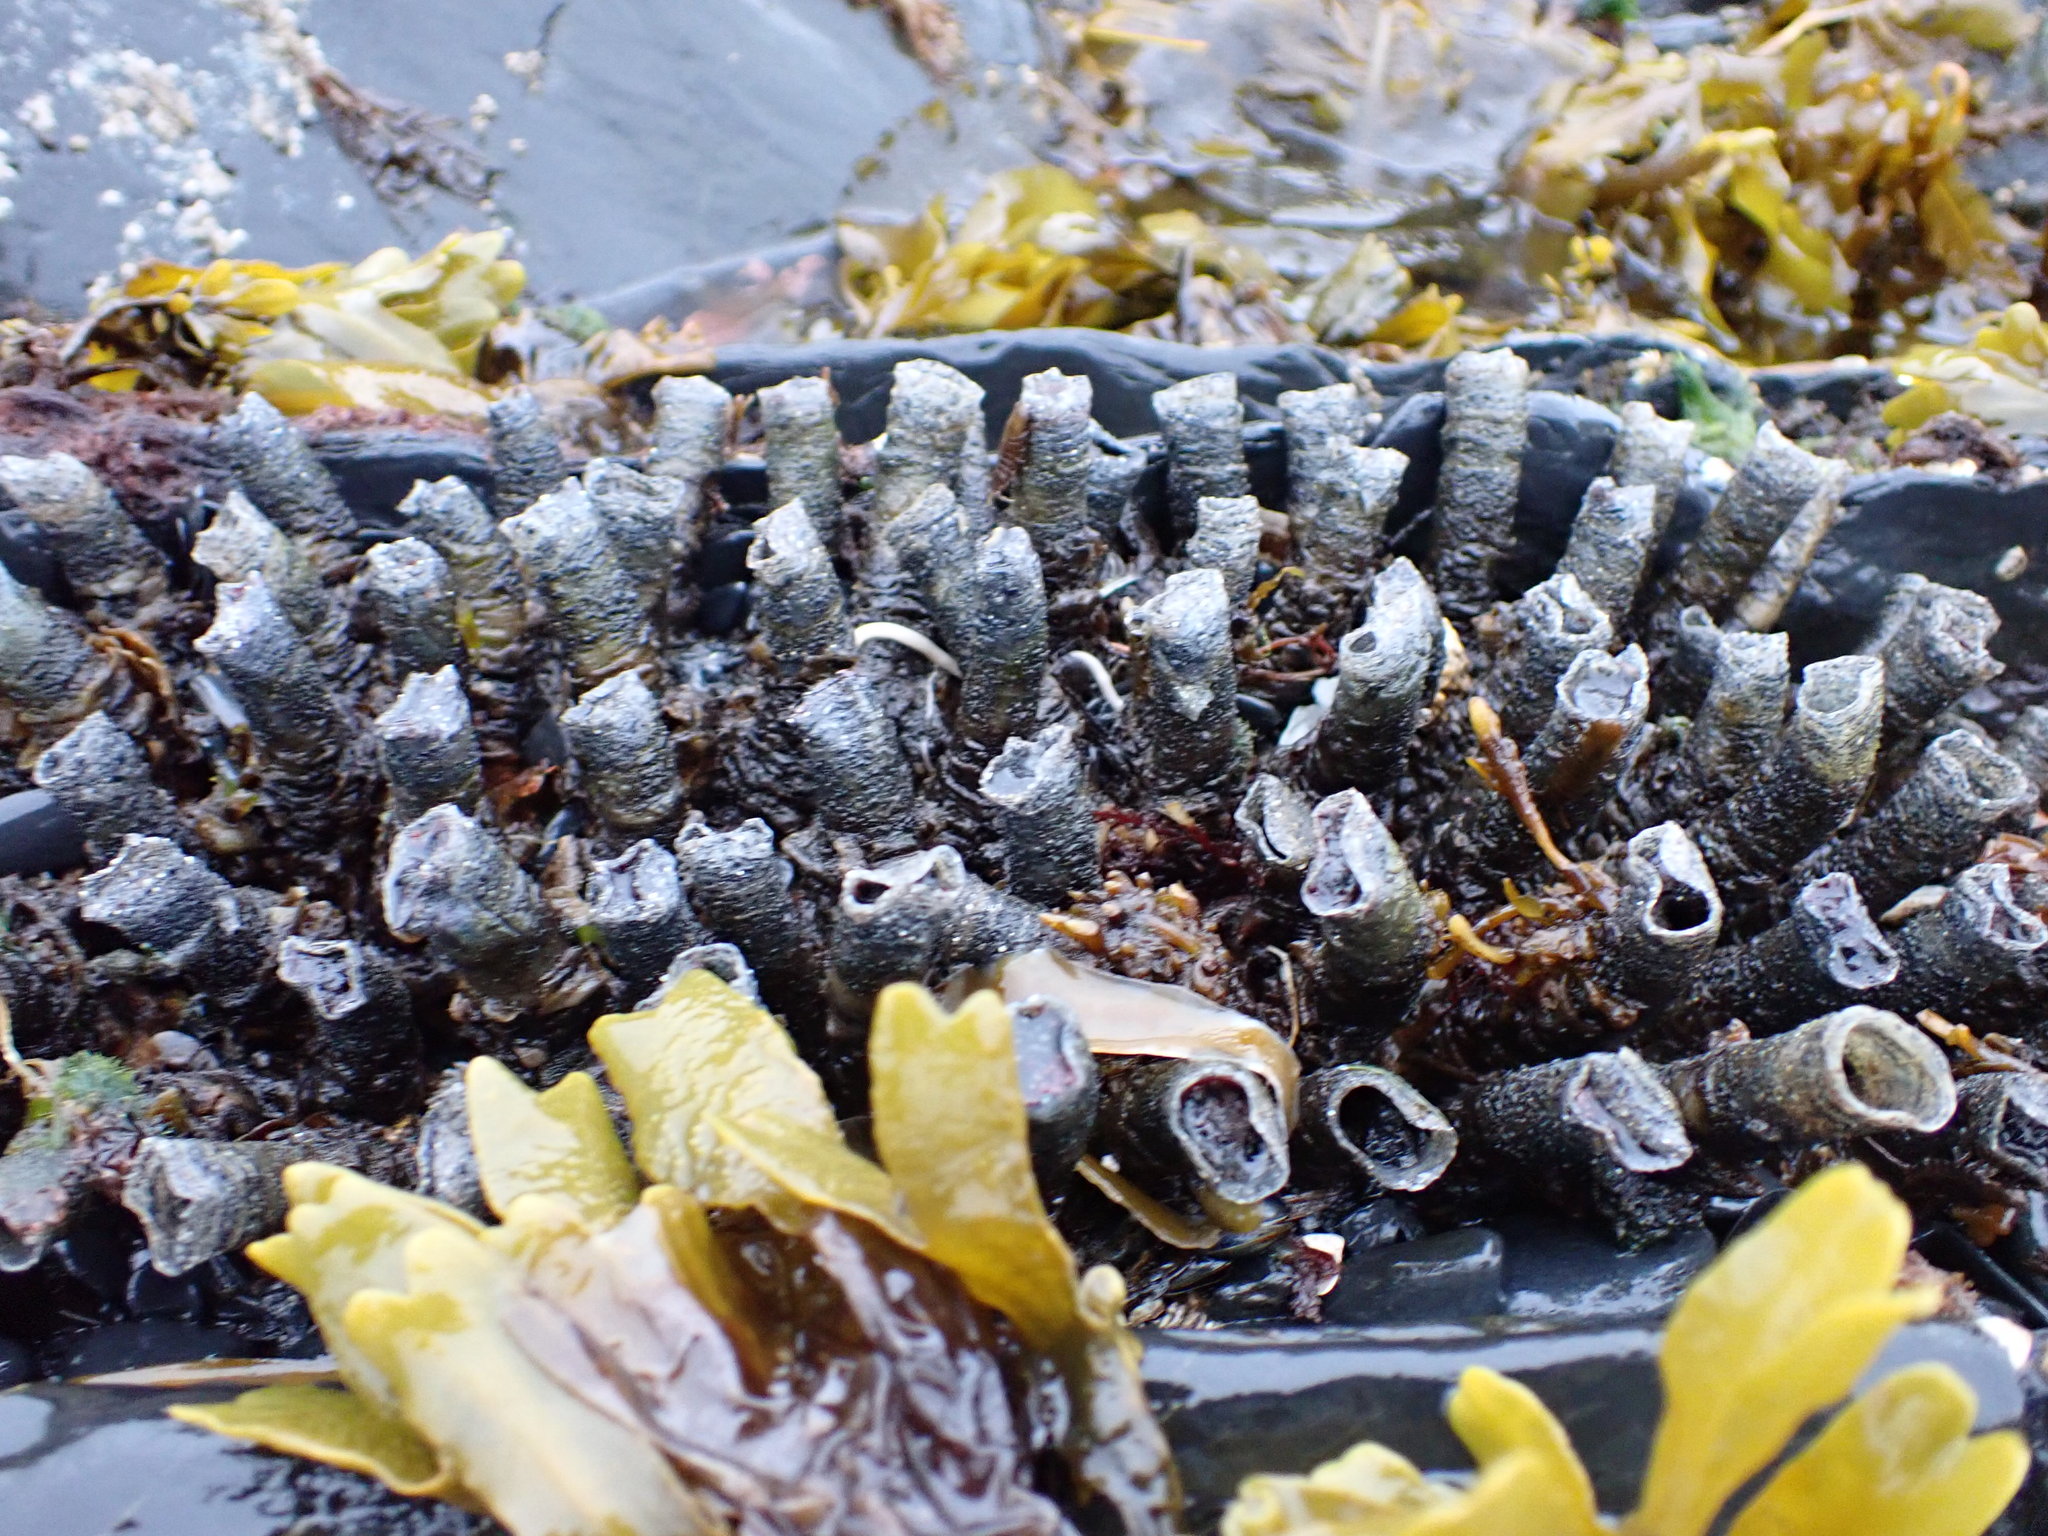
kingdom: Animalia
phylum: Annelida
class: Polychaeta
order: Sabellida
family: Sabellidae
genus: Eudistylia
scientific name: Eudistylia vancouveri
